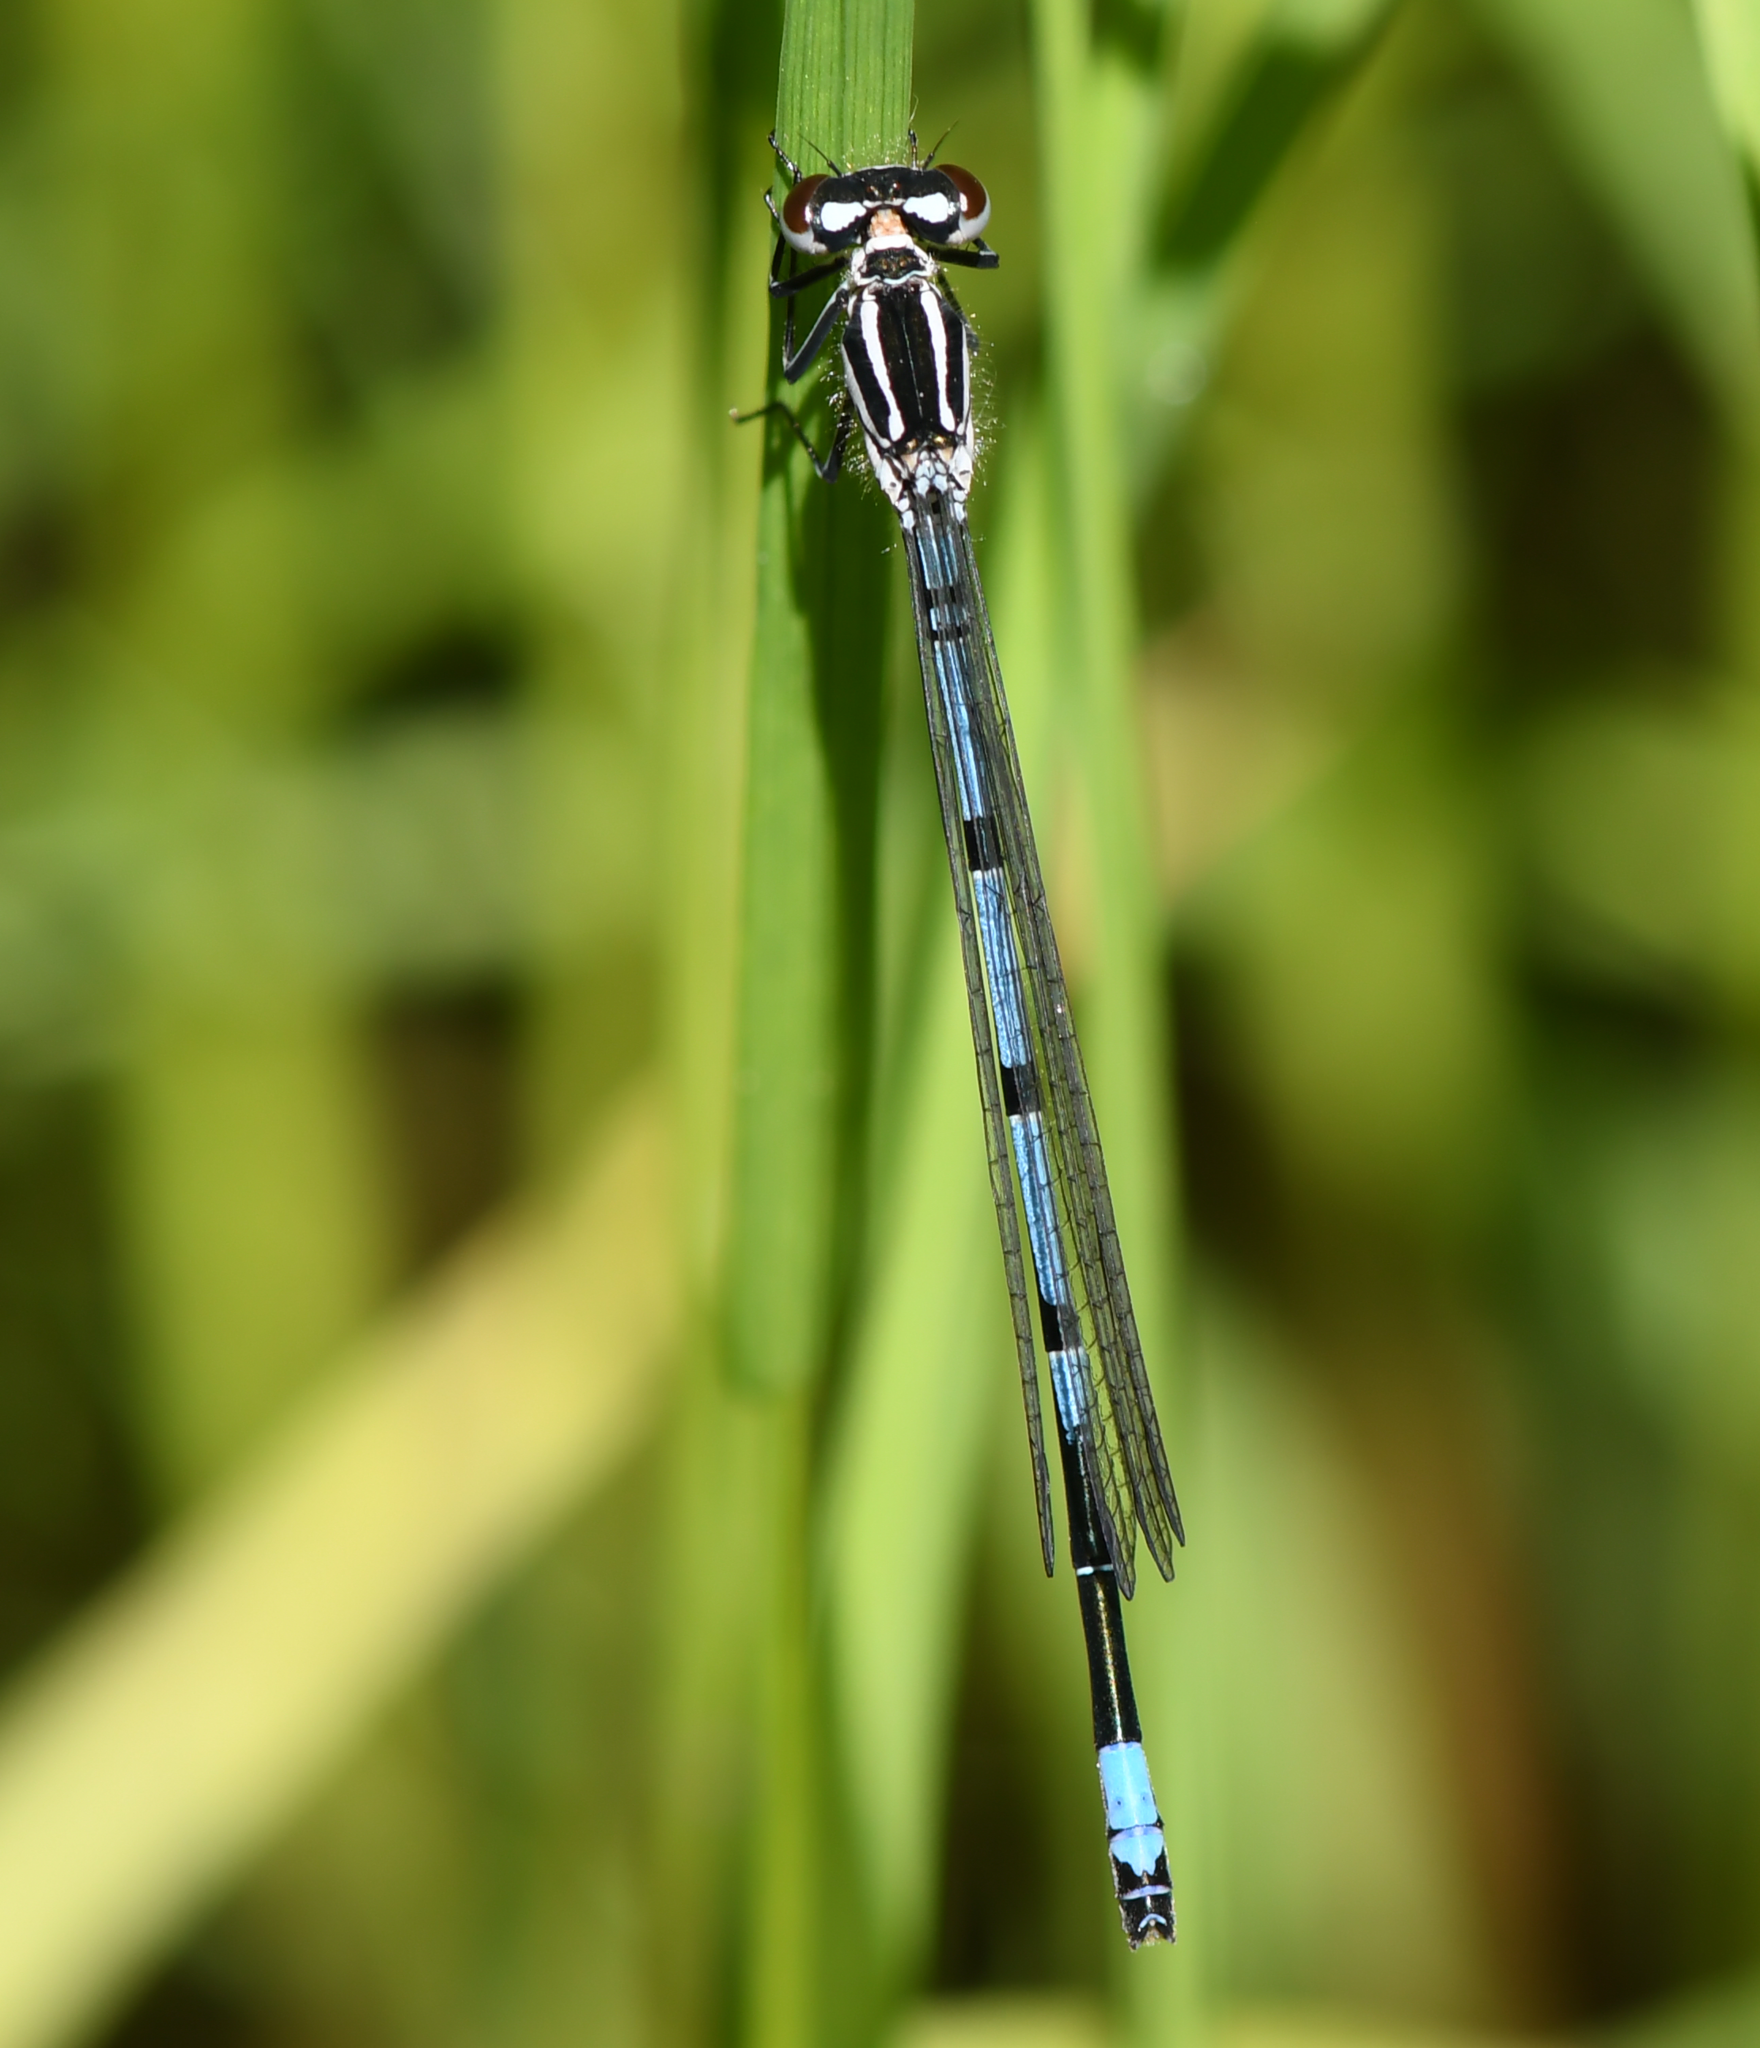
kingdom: Animalia
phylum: Arthropoda
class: Insecta
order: Odonata
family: Coenagrionidae
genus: Coenagrion
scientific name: Coenagrion puella
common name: Azure damselfly
